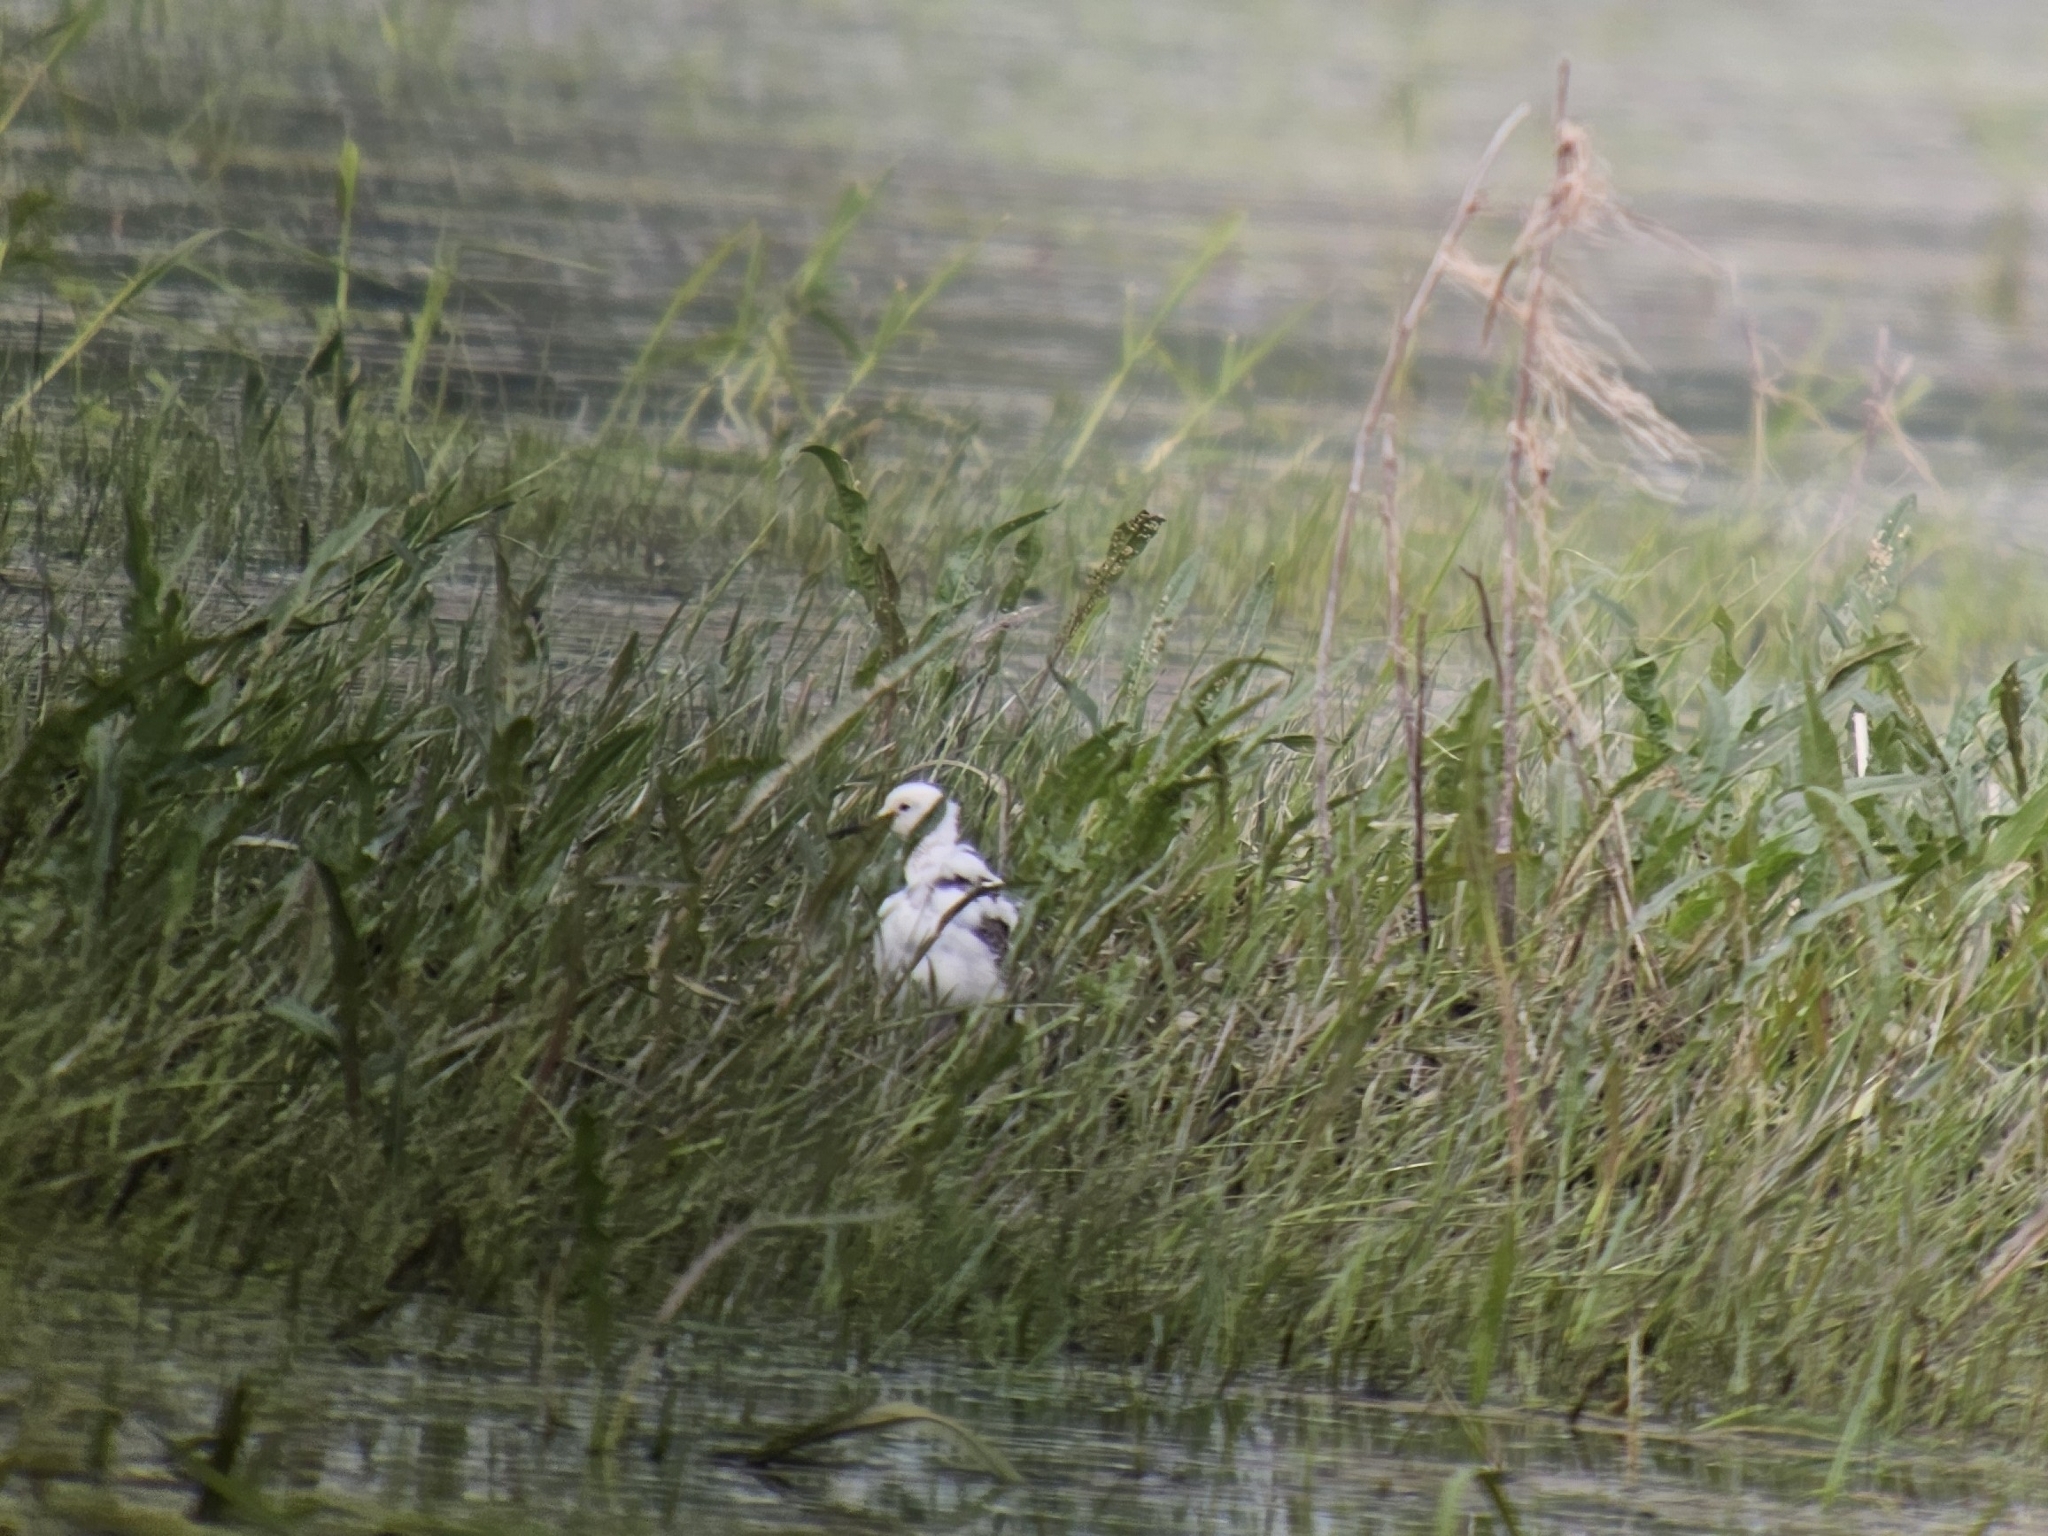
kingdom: Animalia
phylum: Chordata
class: Aves
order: Charadriiformes
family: Scolopacidae
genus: Calidris
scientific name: Calidris pugnax
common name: Ruff
